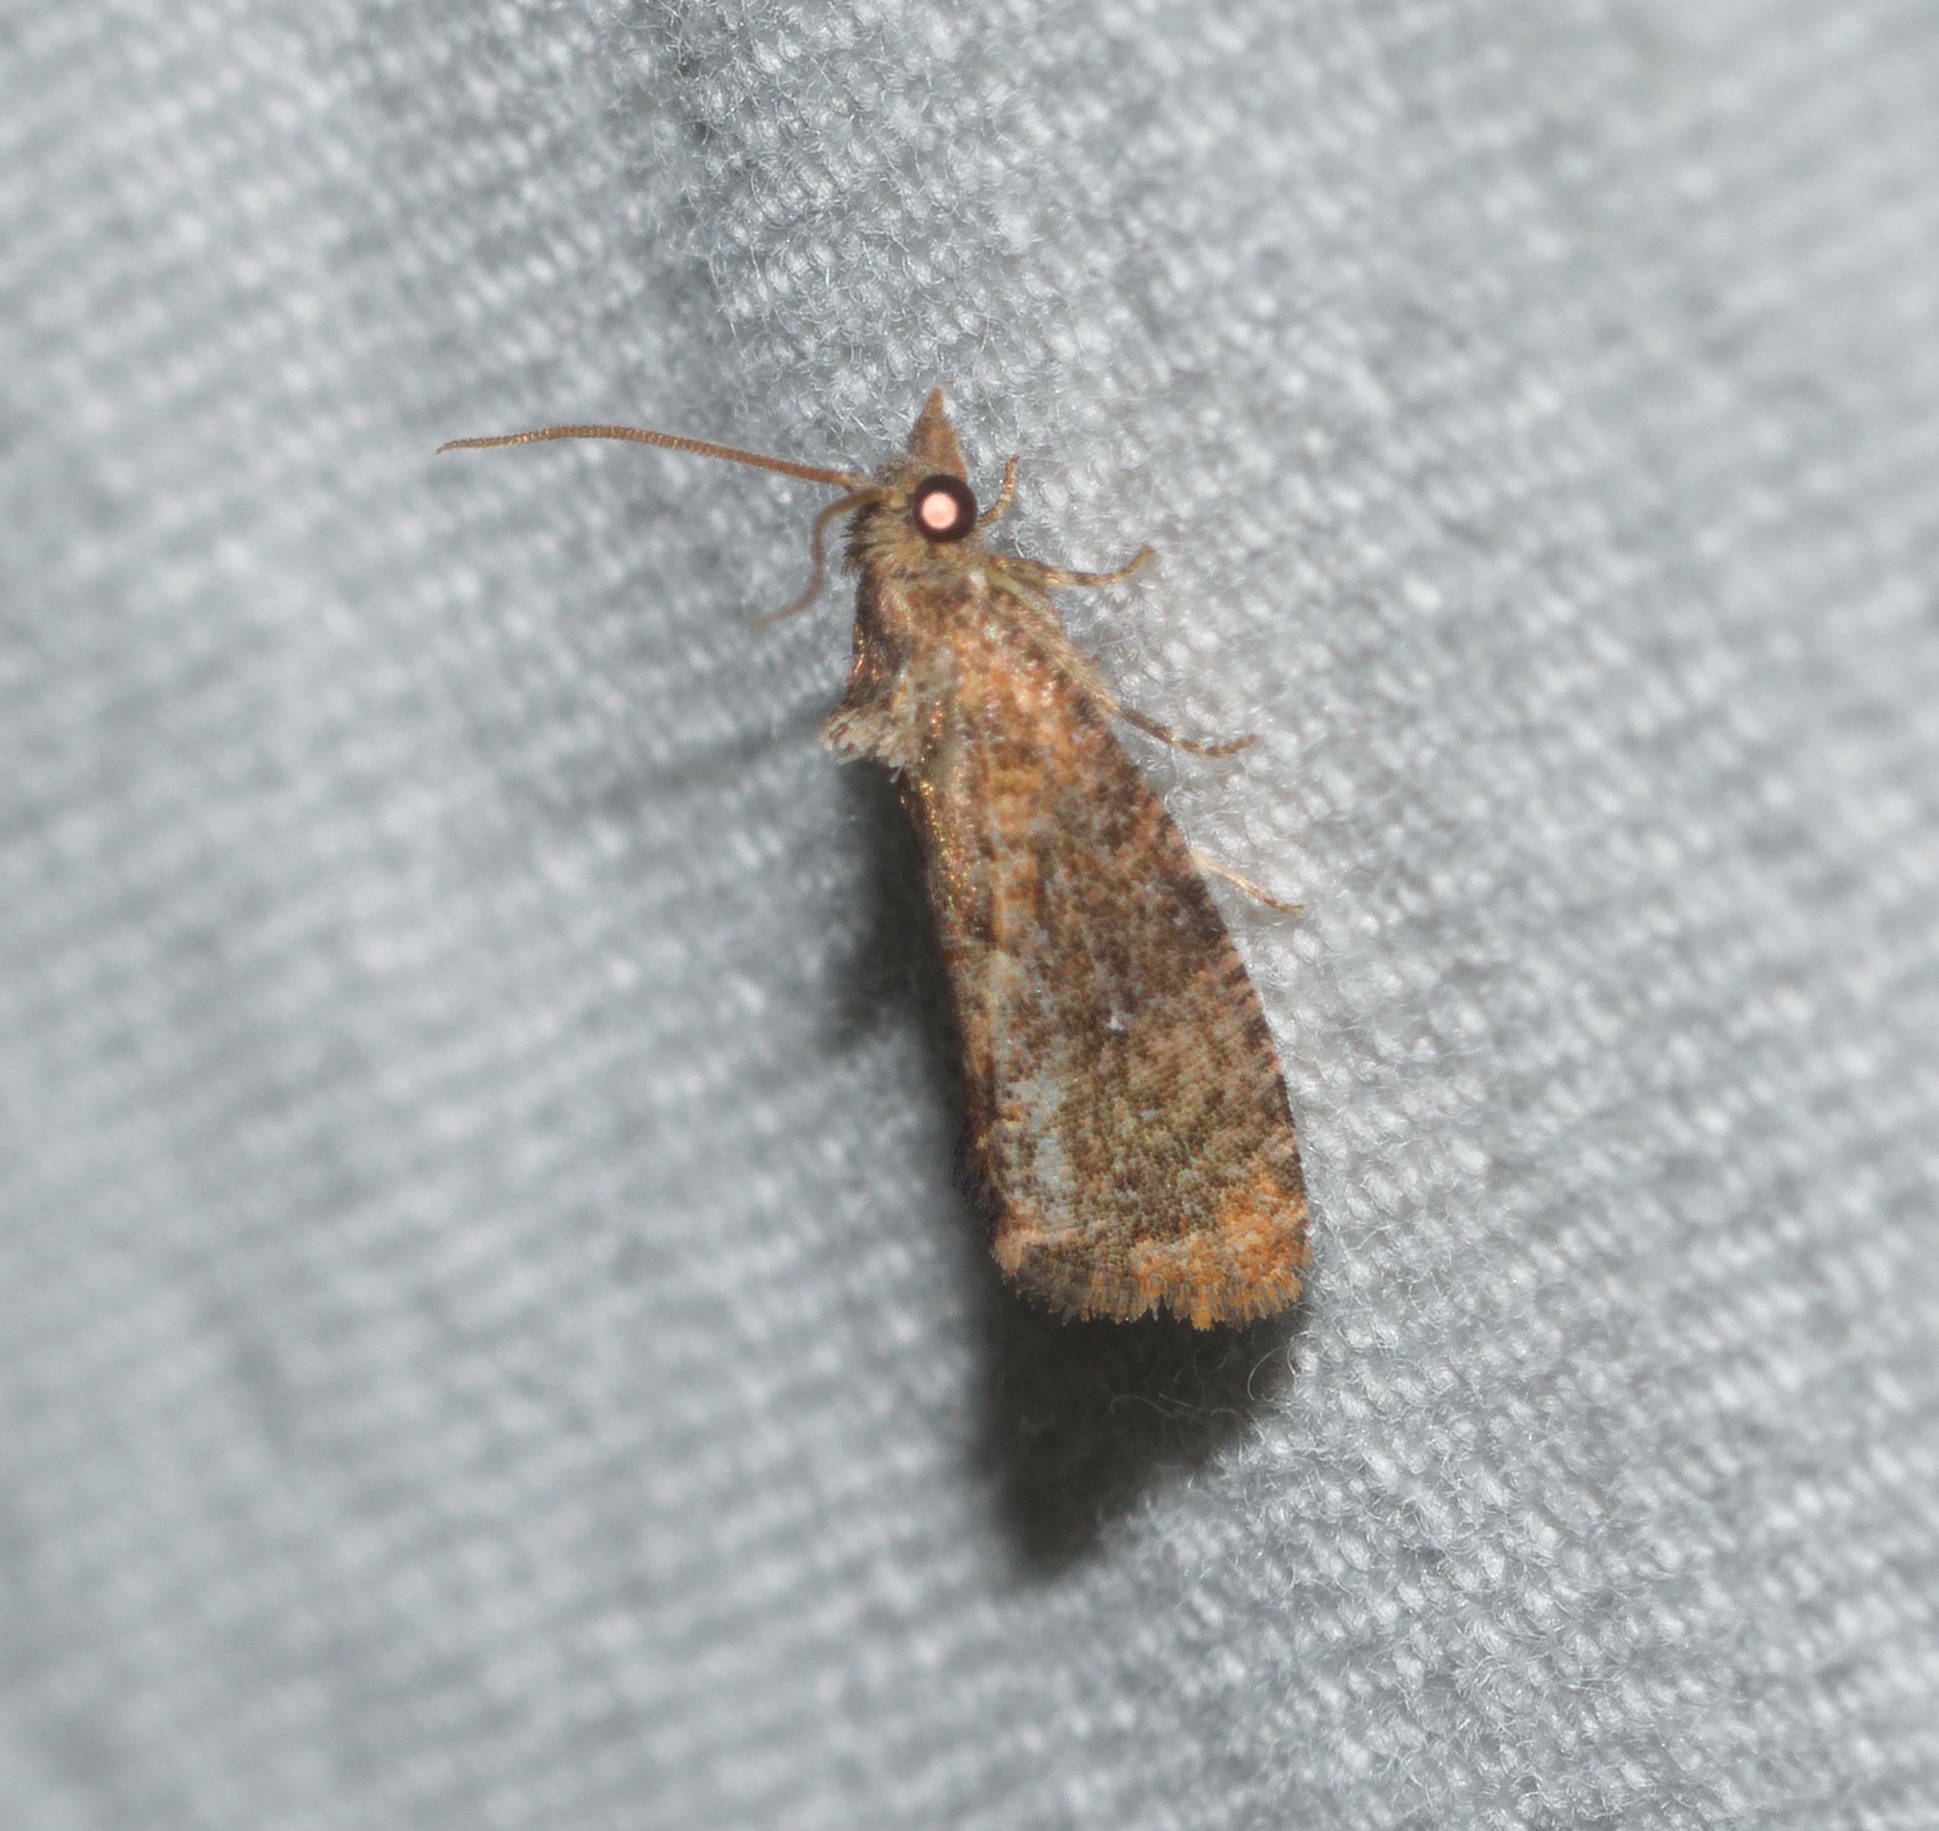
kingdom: Animalia
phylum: Arthropoda
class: Insecta
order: Lepidoptera
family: Tortricidae
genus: Cryptophlebia
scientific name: Cryptophlebia illepida
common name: Moth
